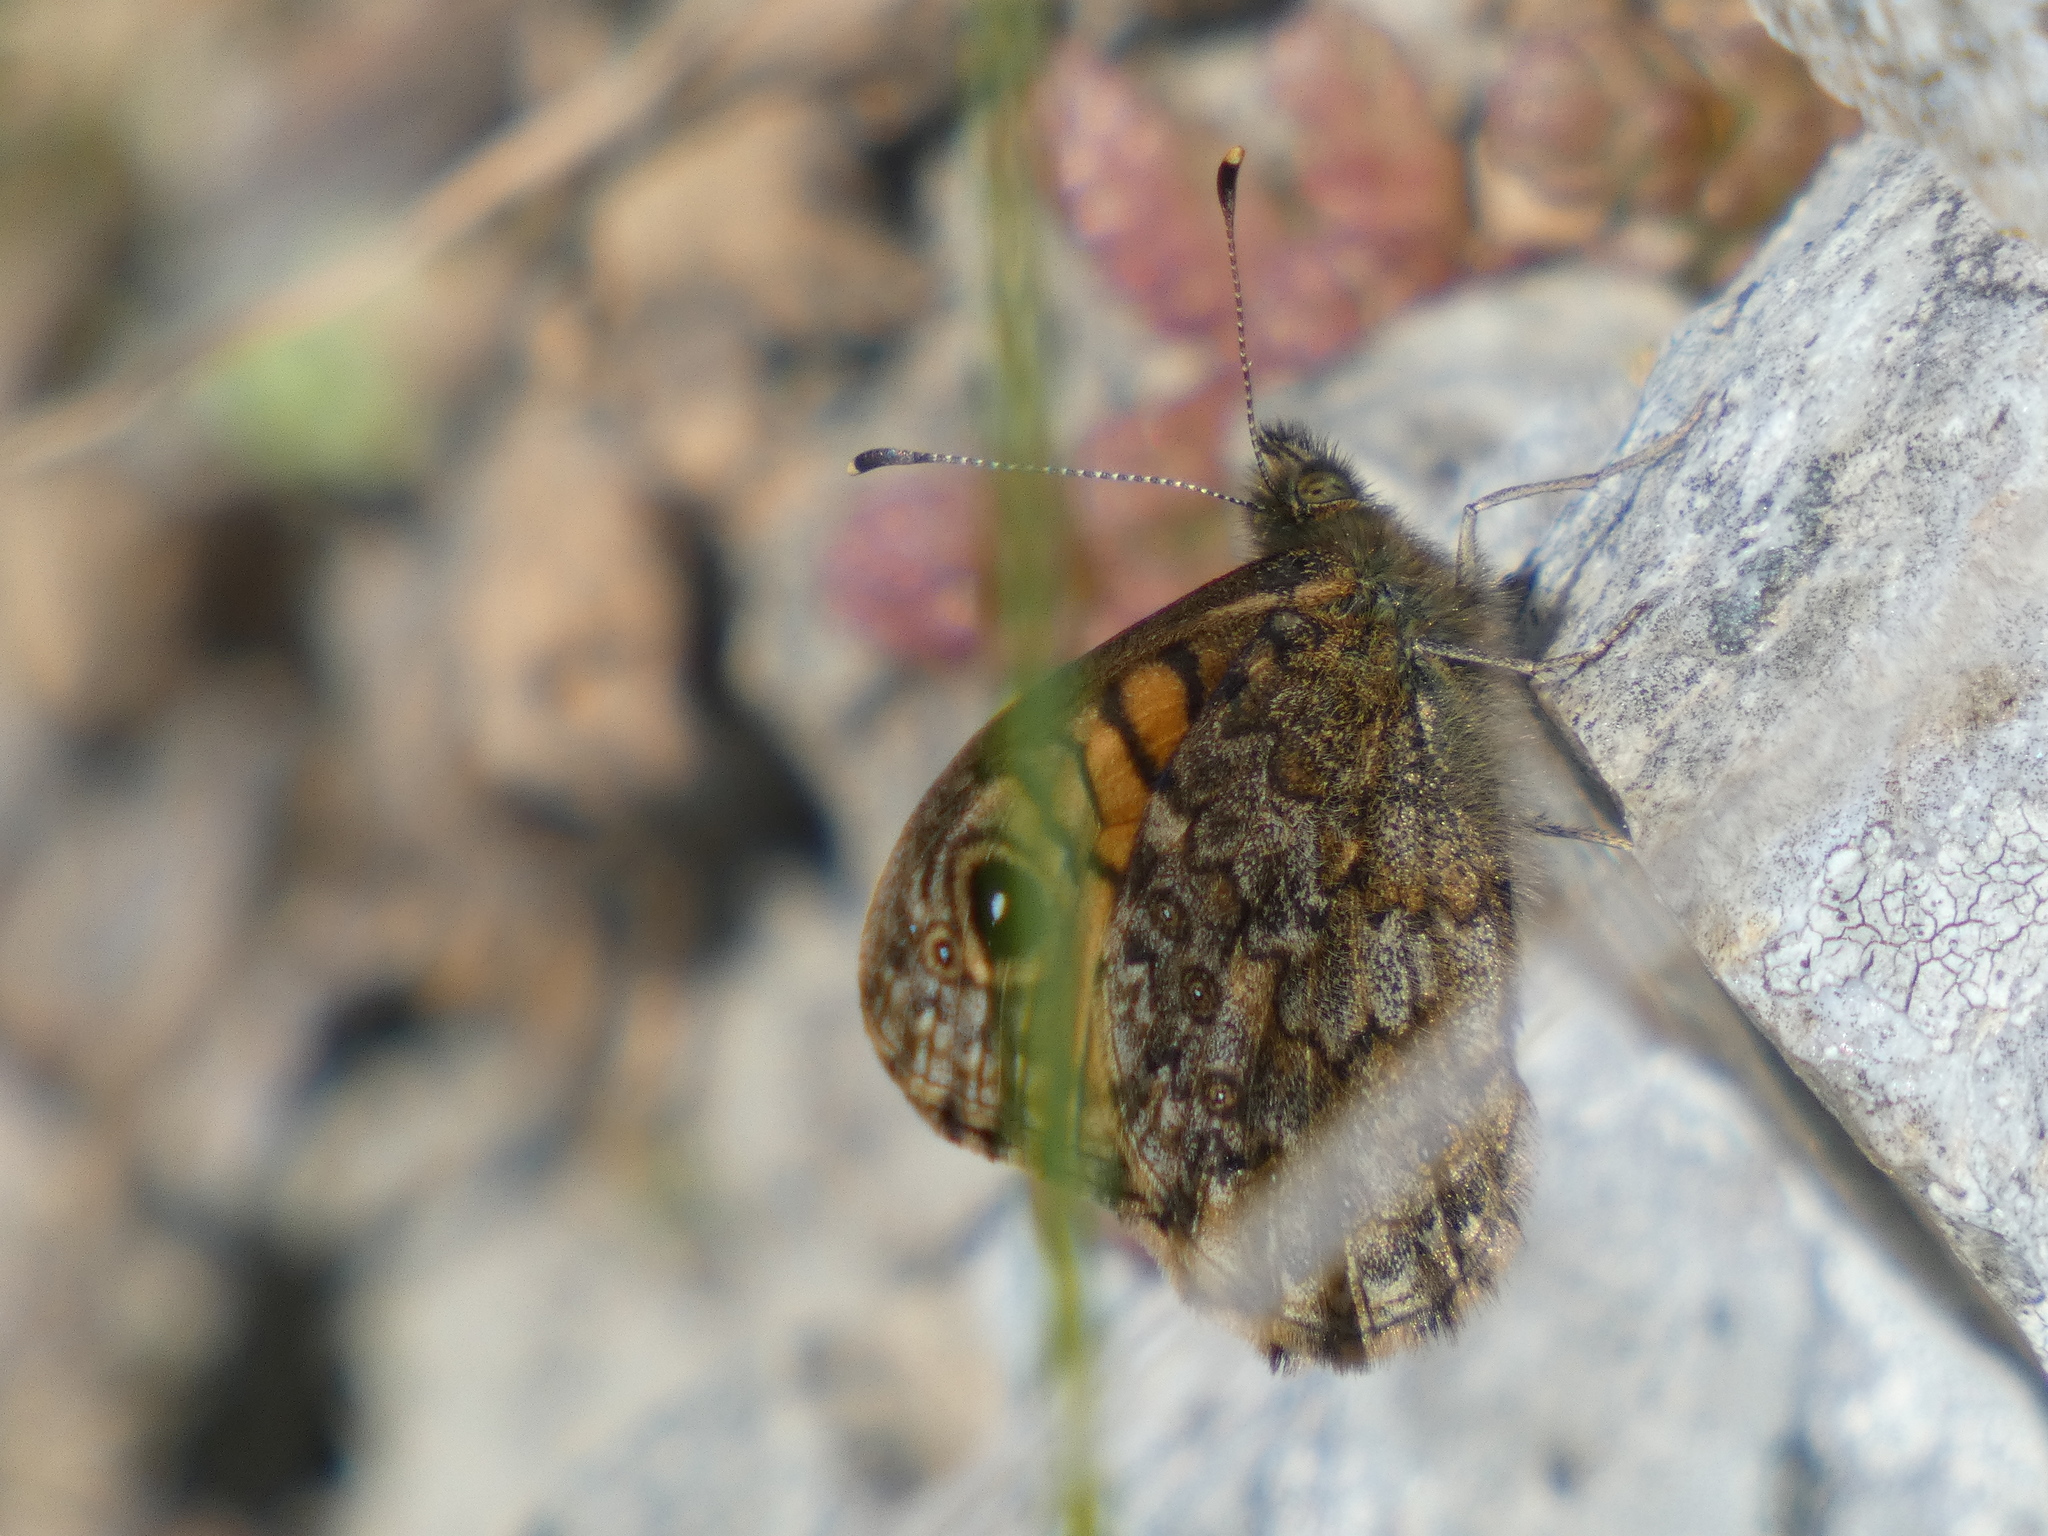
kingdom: Animalia
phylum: Arthropoda
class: Insecta
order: Lepidoptera
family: Nymphalidae
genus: Pararge
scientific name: Pararge Lasiommata megera
